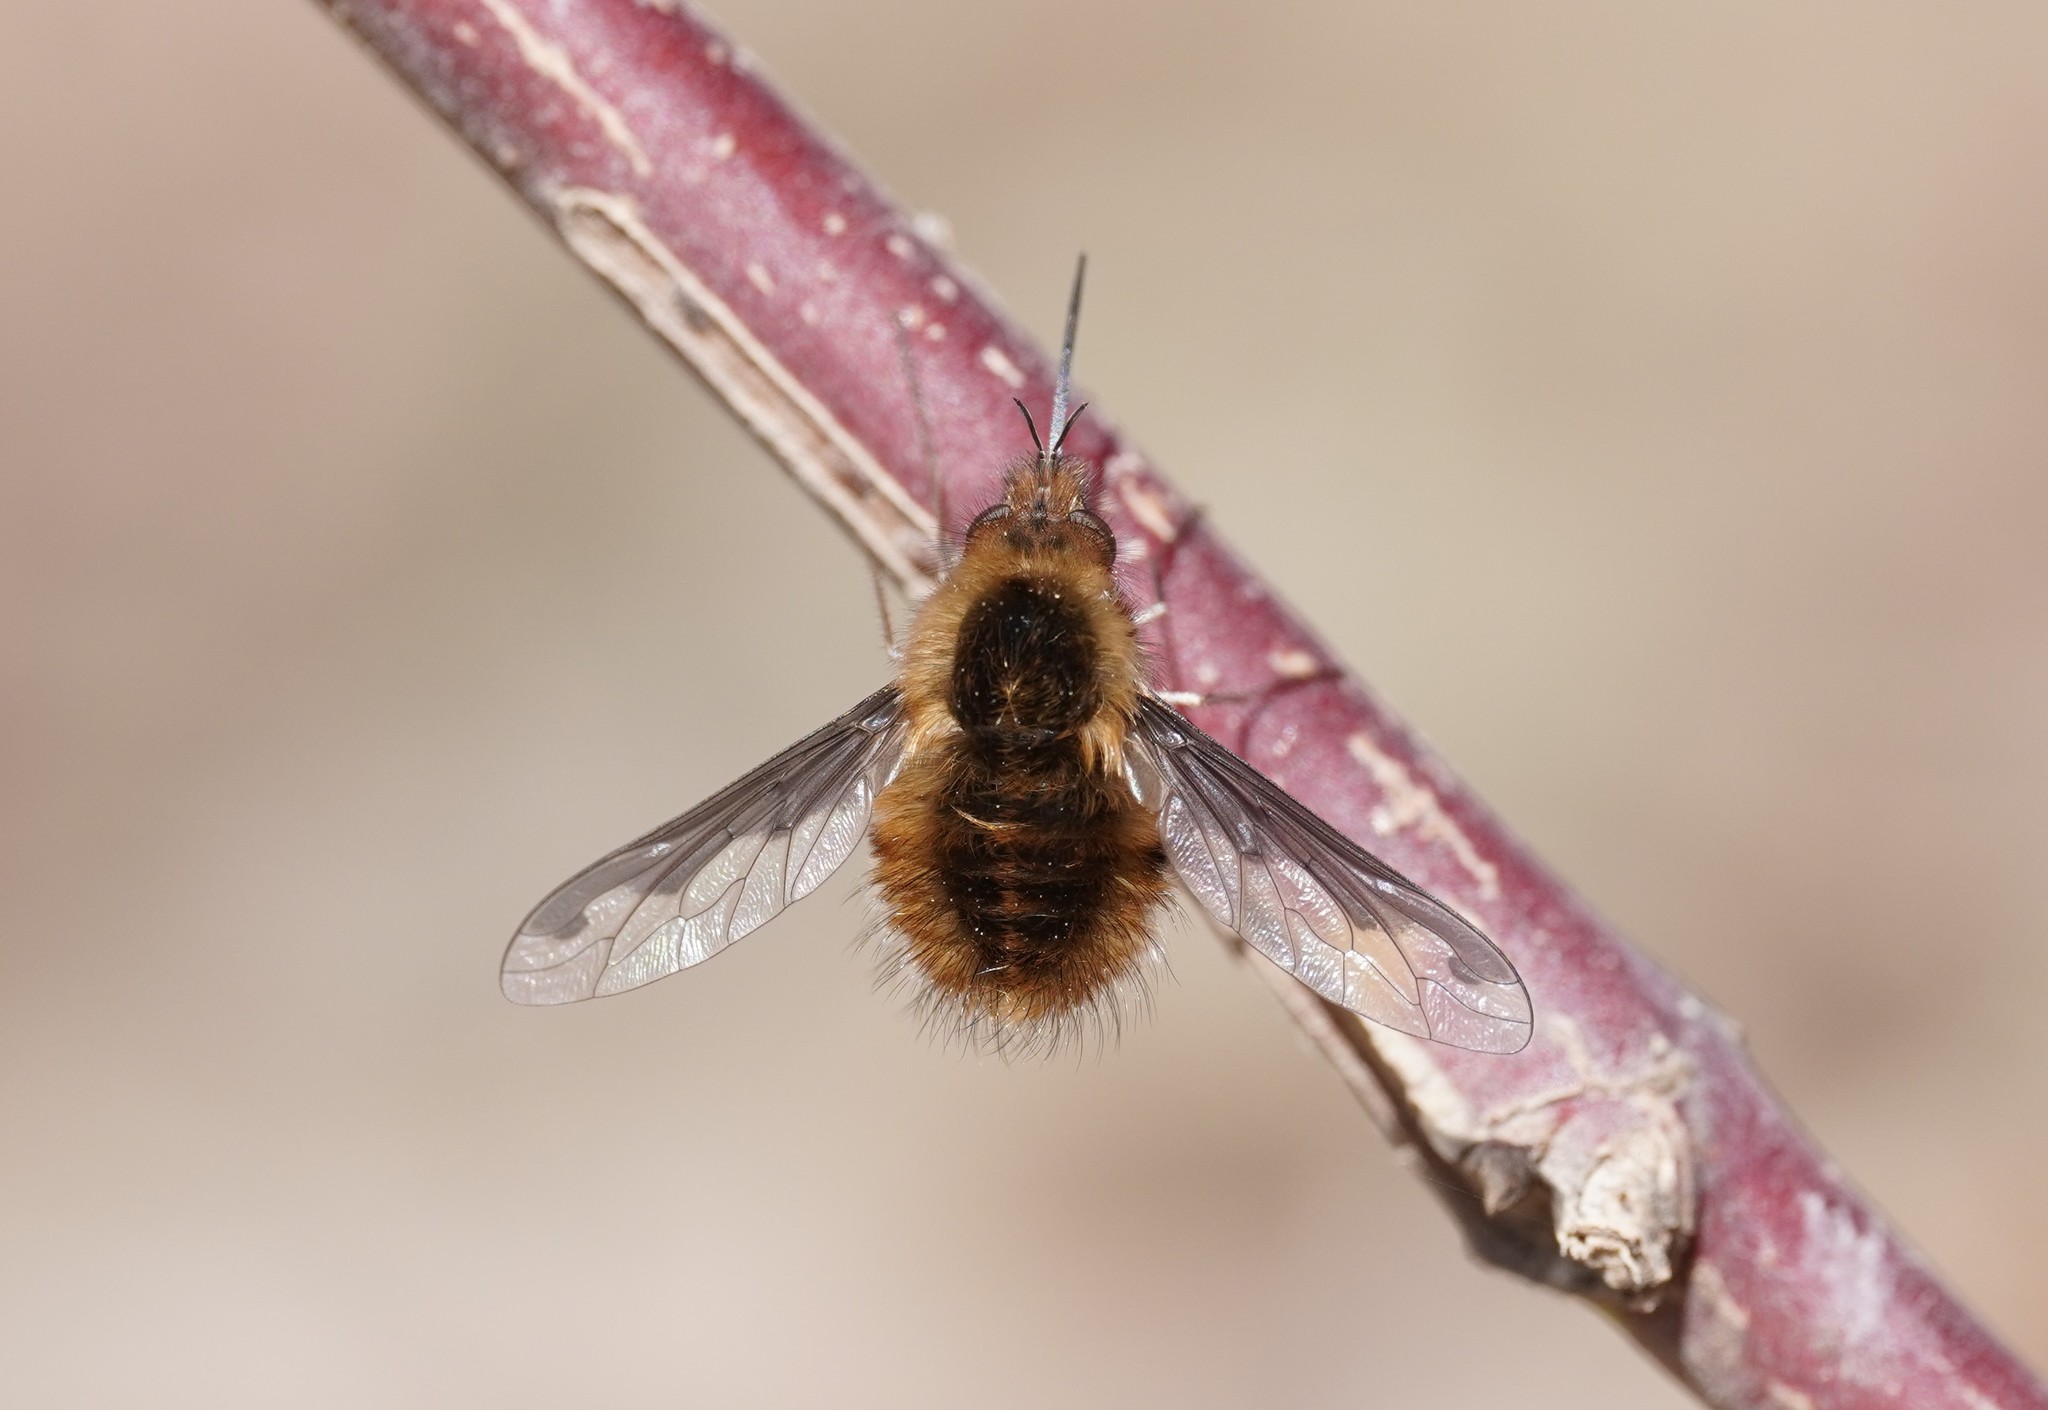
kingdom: Animalia
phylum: Arthropoda
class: Insecta
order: Diptera
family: Bombyliidae
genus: Bombylius
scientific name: Bombylius major
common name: Bee fly
